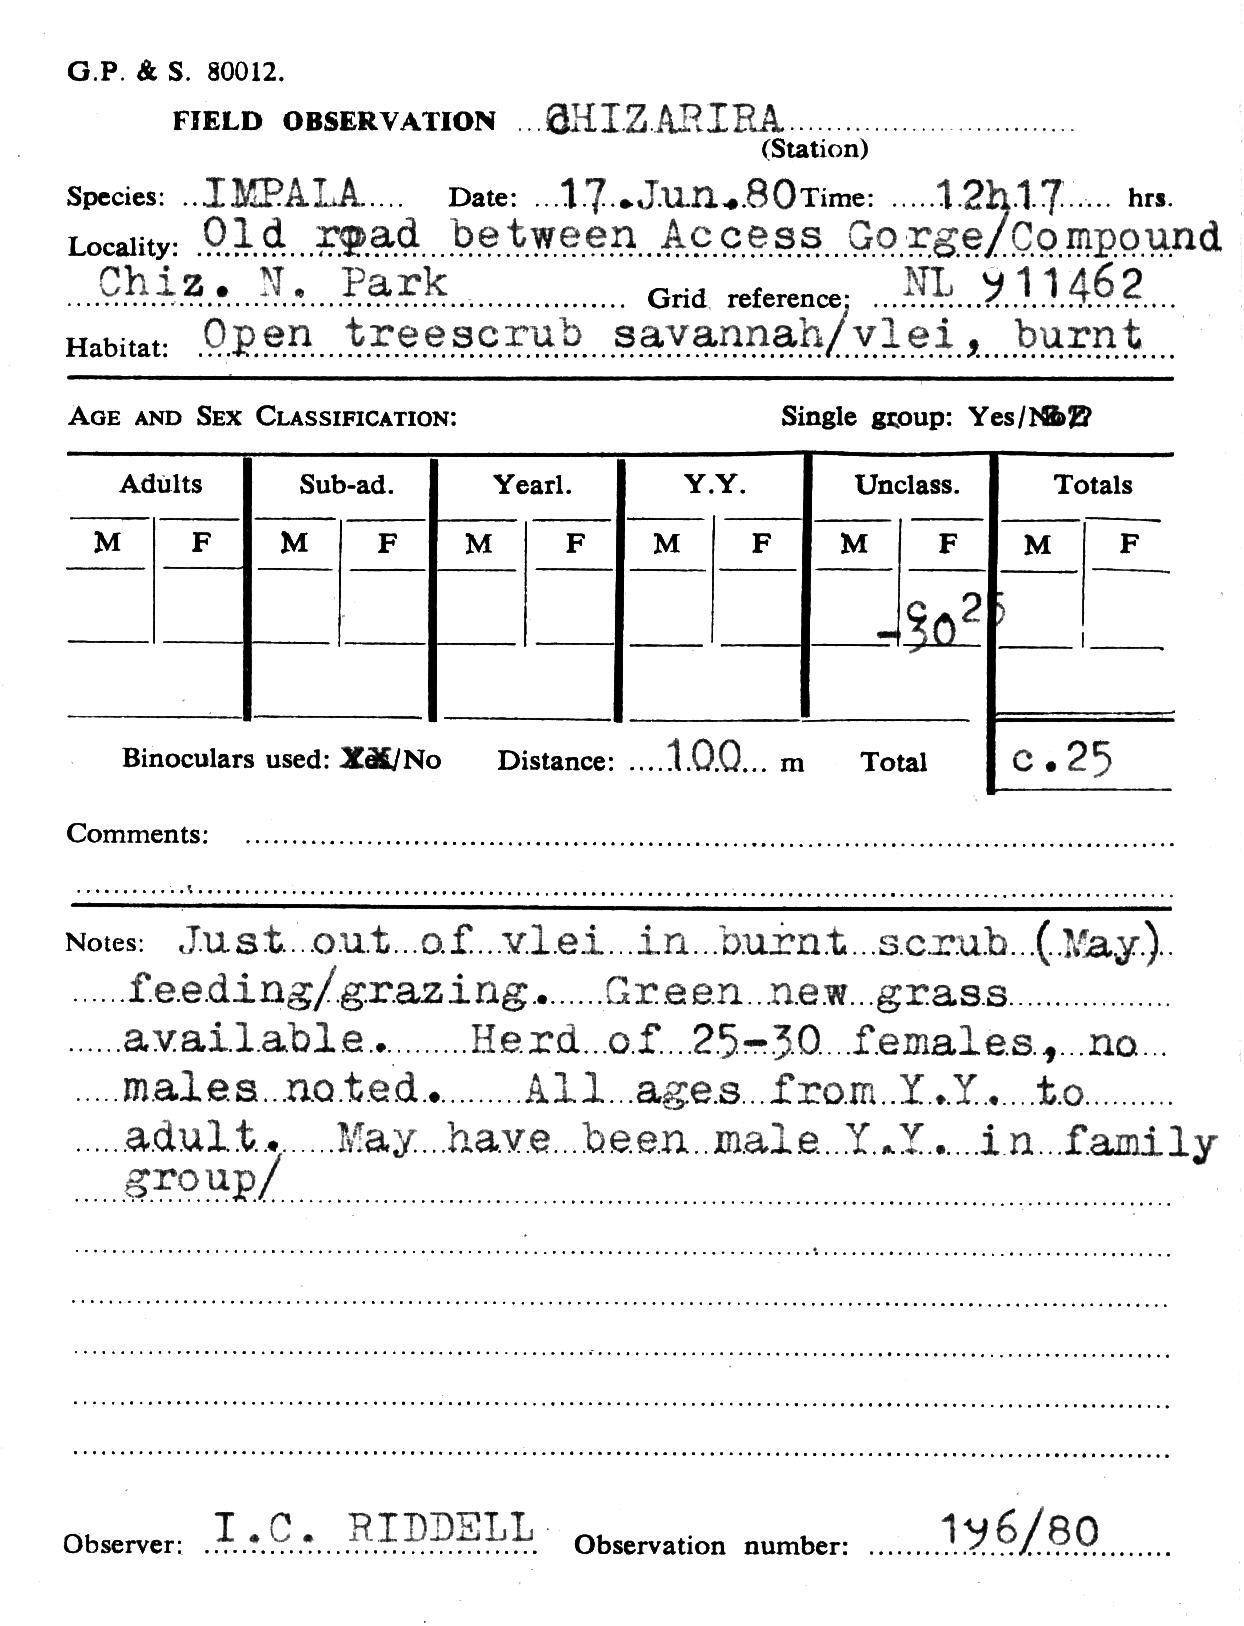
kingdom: Animalia
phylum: Chordata
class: Mammalia
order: Artiodactyla
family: Bovidae
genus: Aepyceros
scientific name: Aepyceros melampus
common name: Impala
